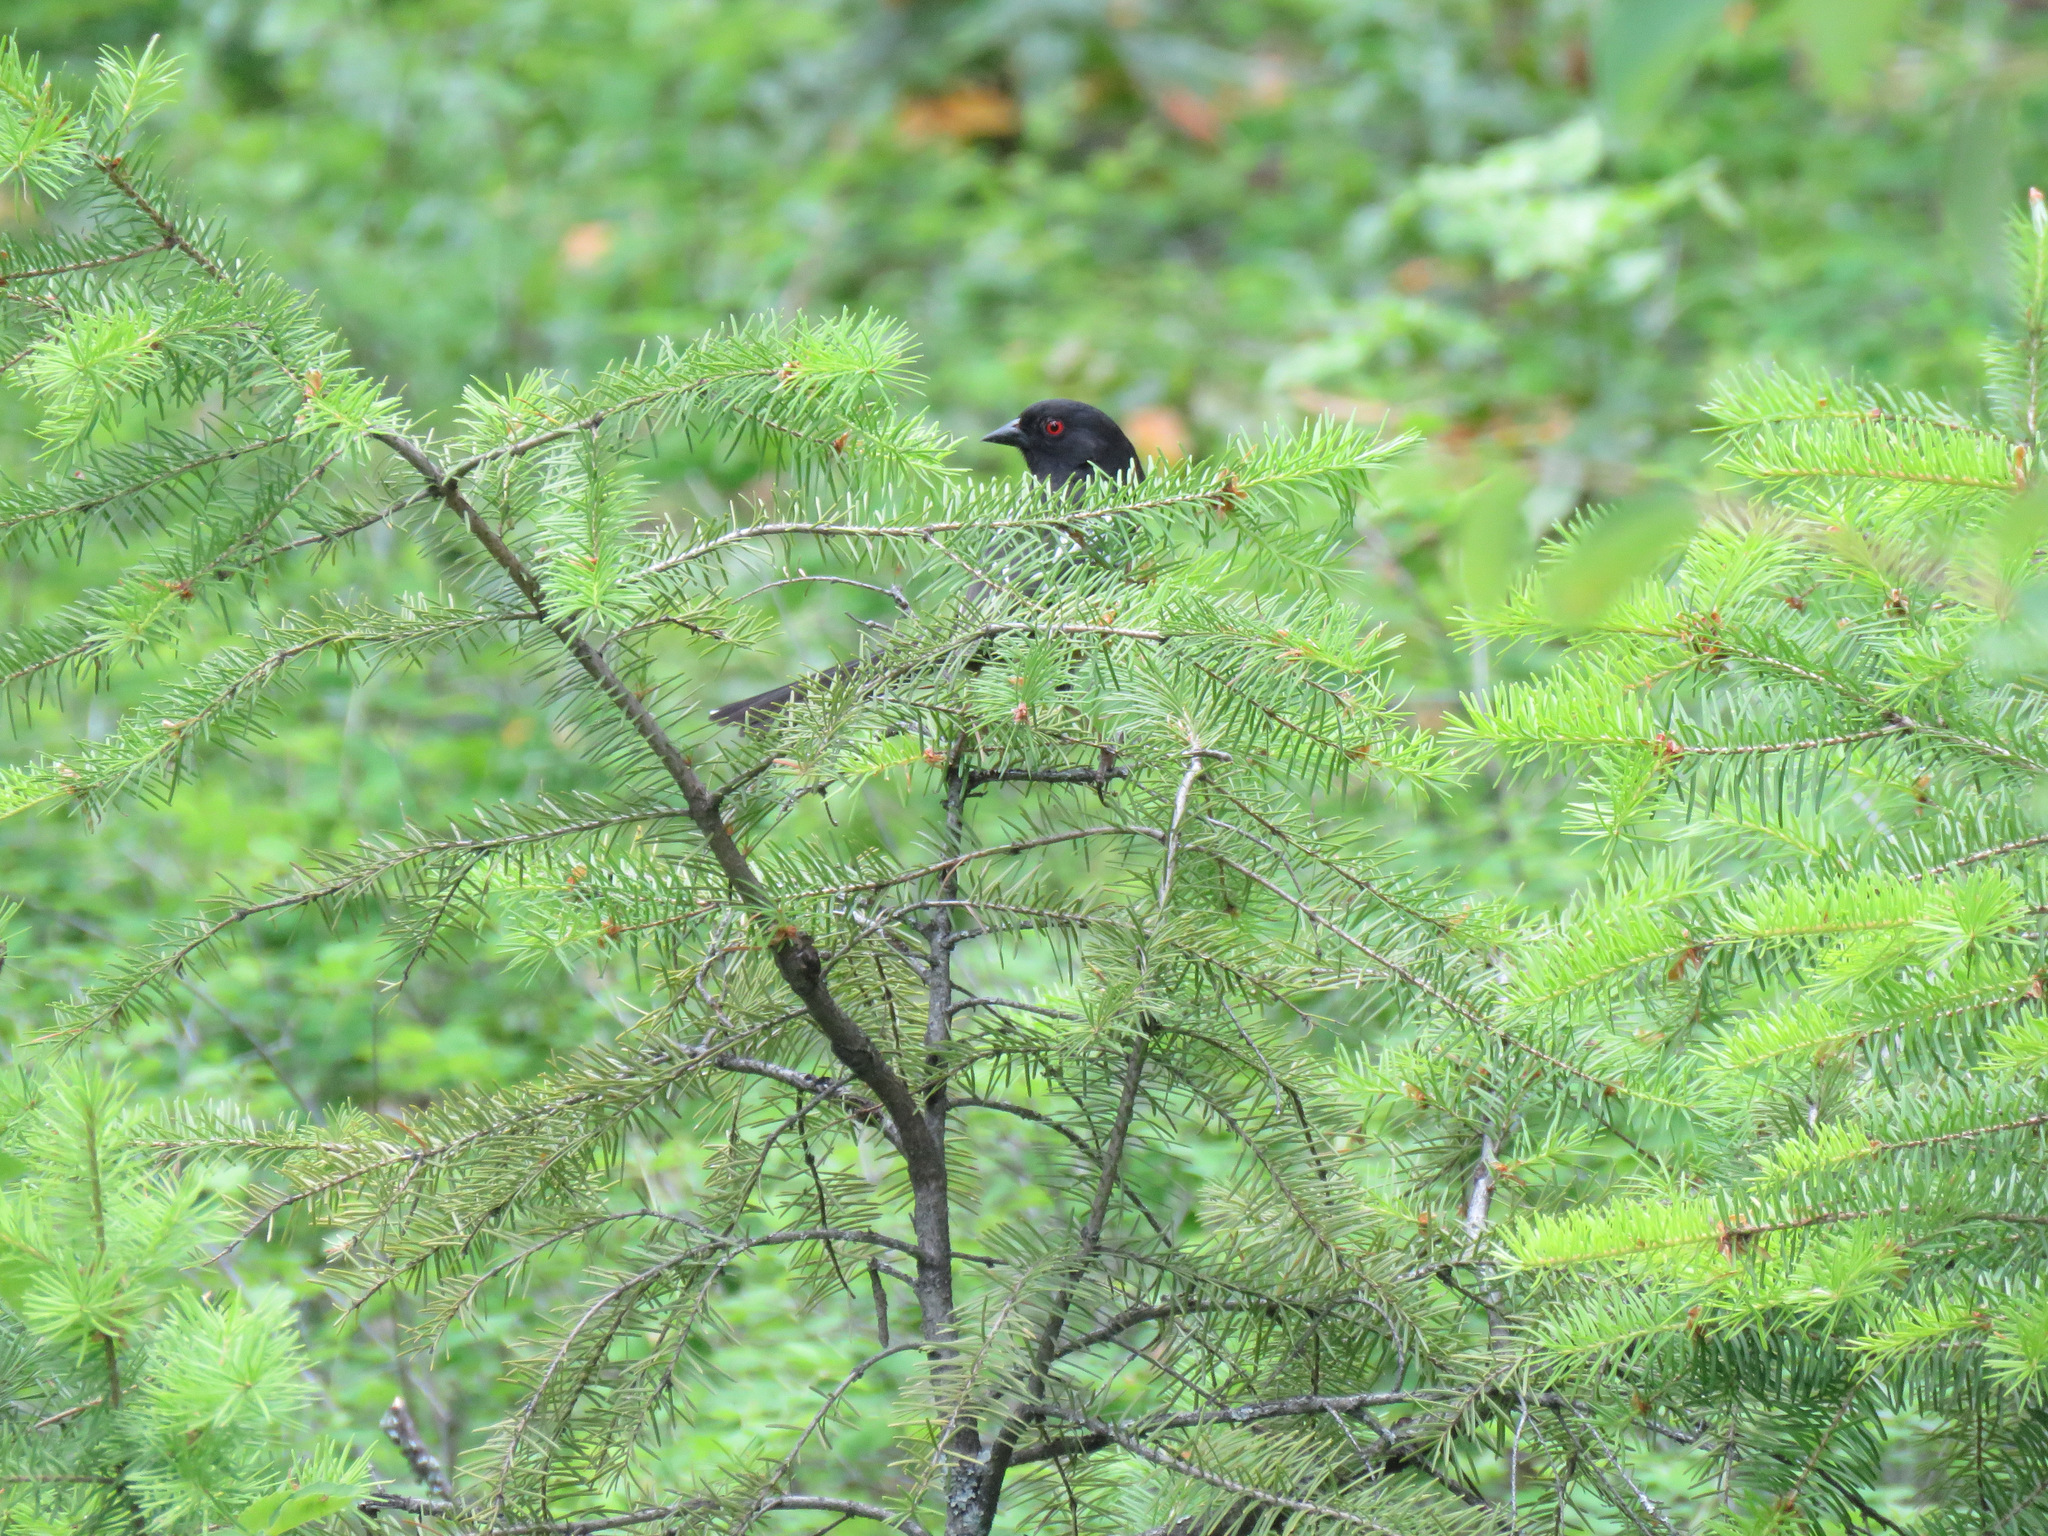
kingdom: Animalia
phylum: Chordata
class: Aves
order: Passeriformes
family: Passerellidae
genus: Pipilo
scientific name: Pipilo maculatus
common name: Spotted towhee
